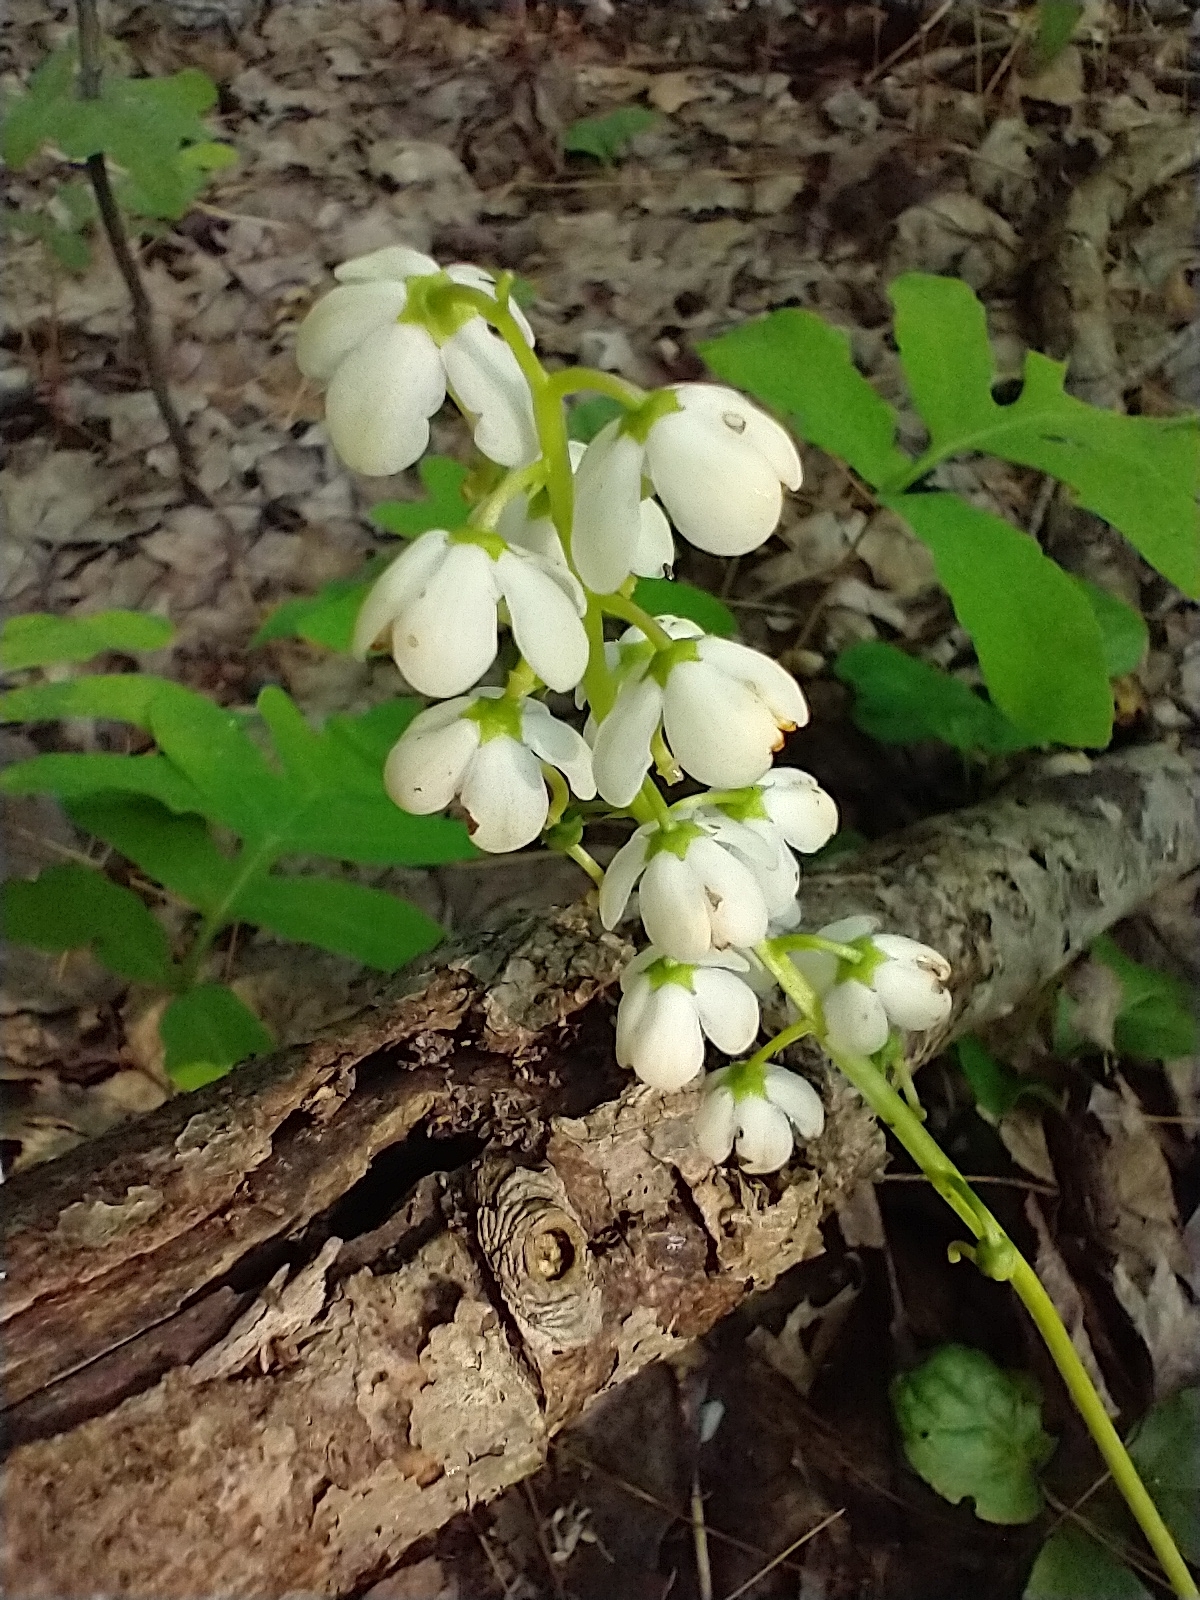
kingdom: Plantae
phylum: Tracheophyta
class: Magnoliopsida
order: Ericales
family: Ericaceae
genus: Pyrola
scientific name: Pyrola elliptica
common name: Shinleaf
